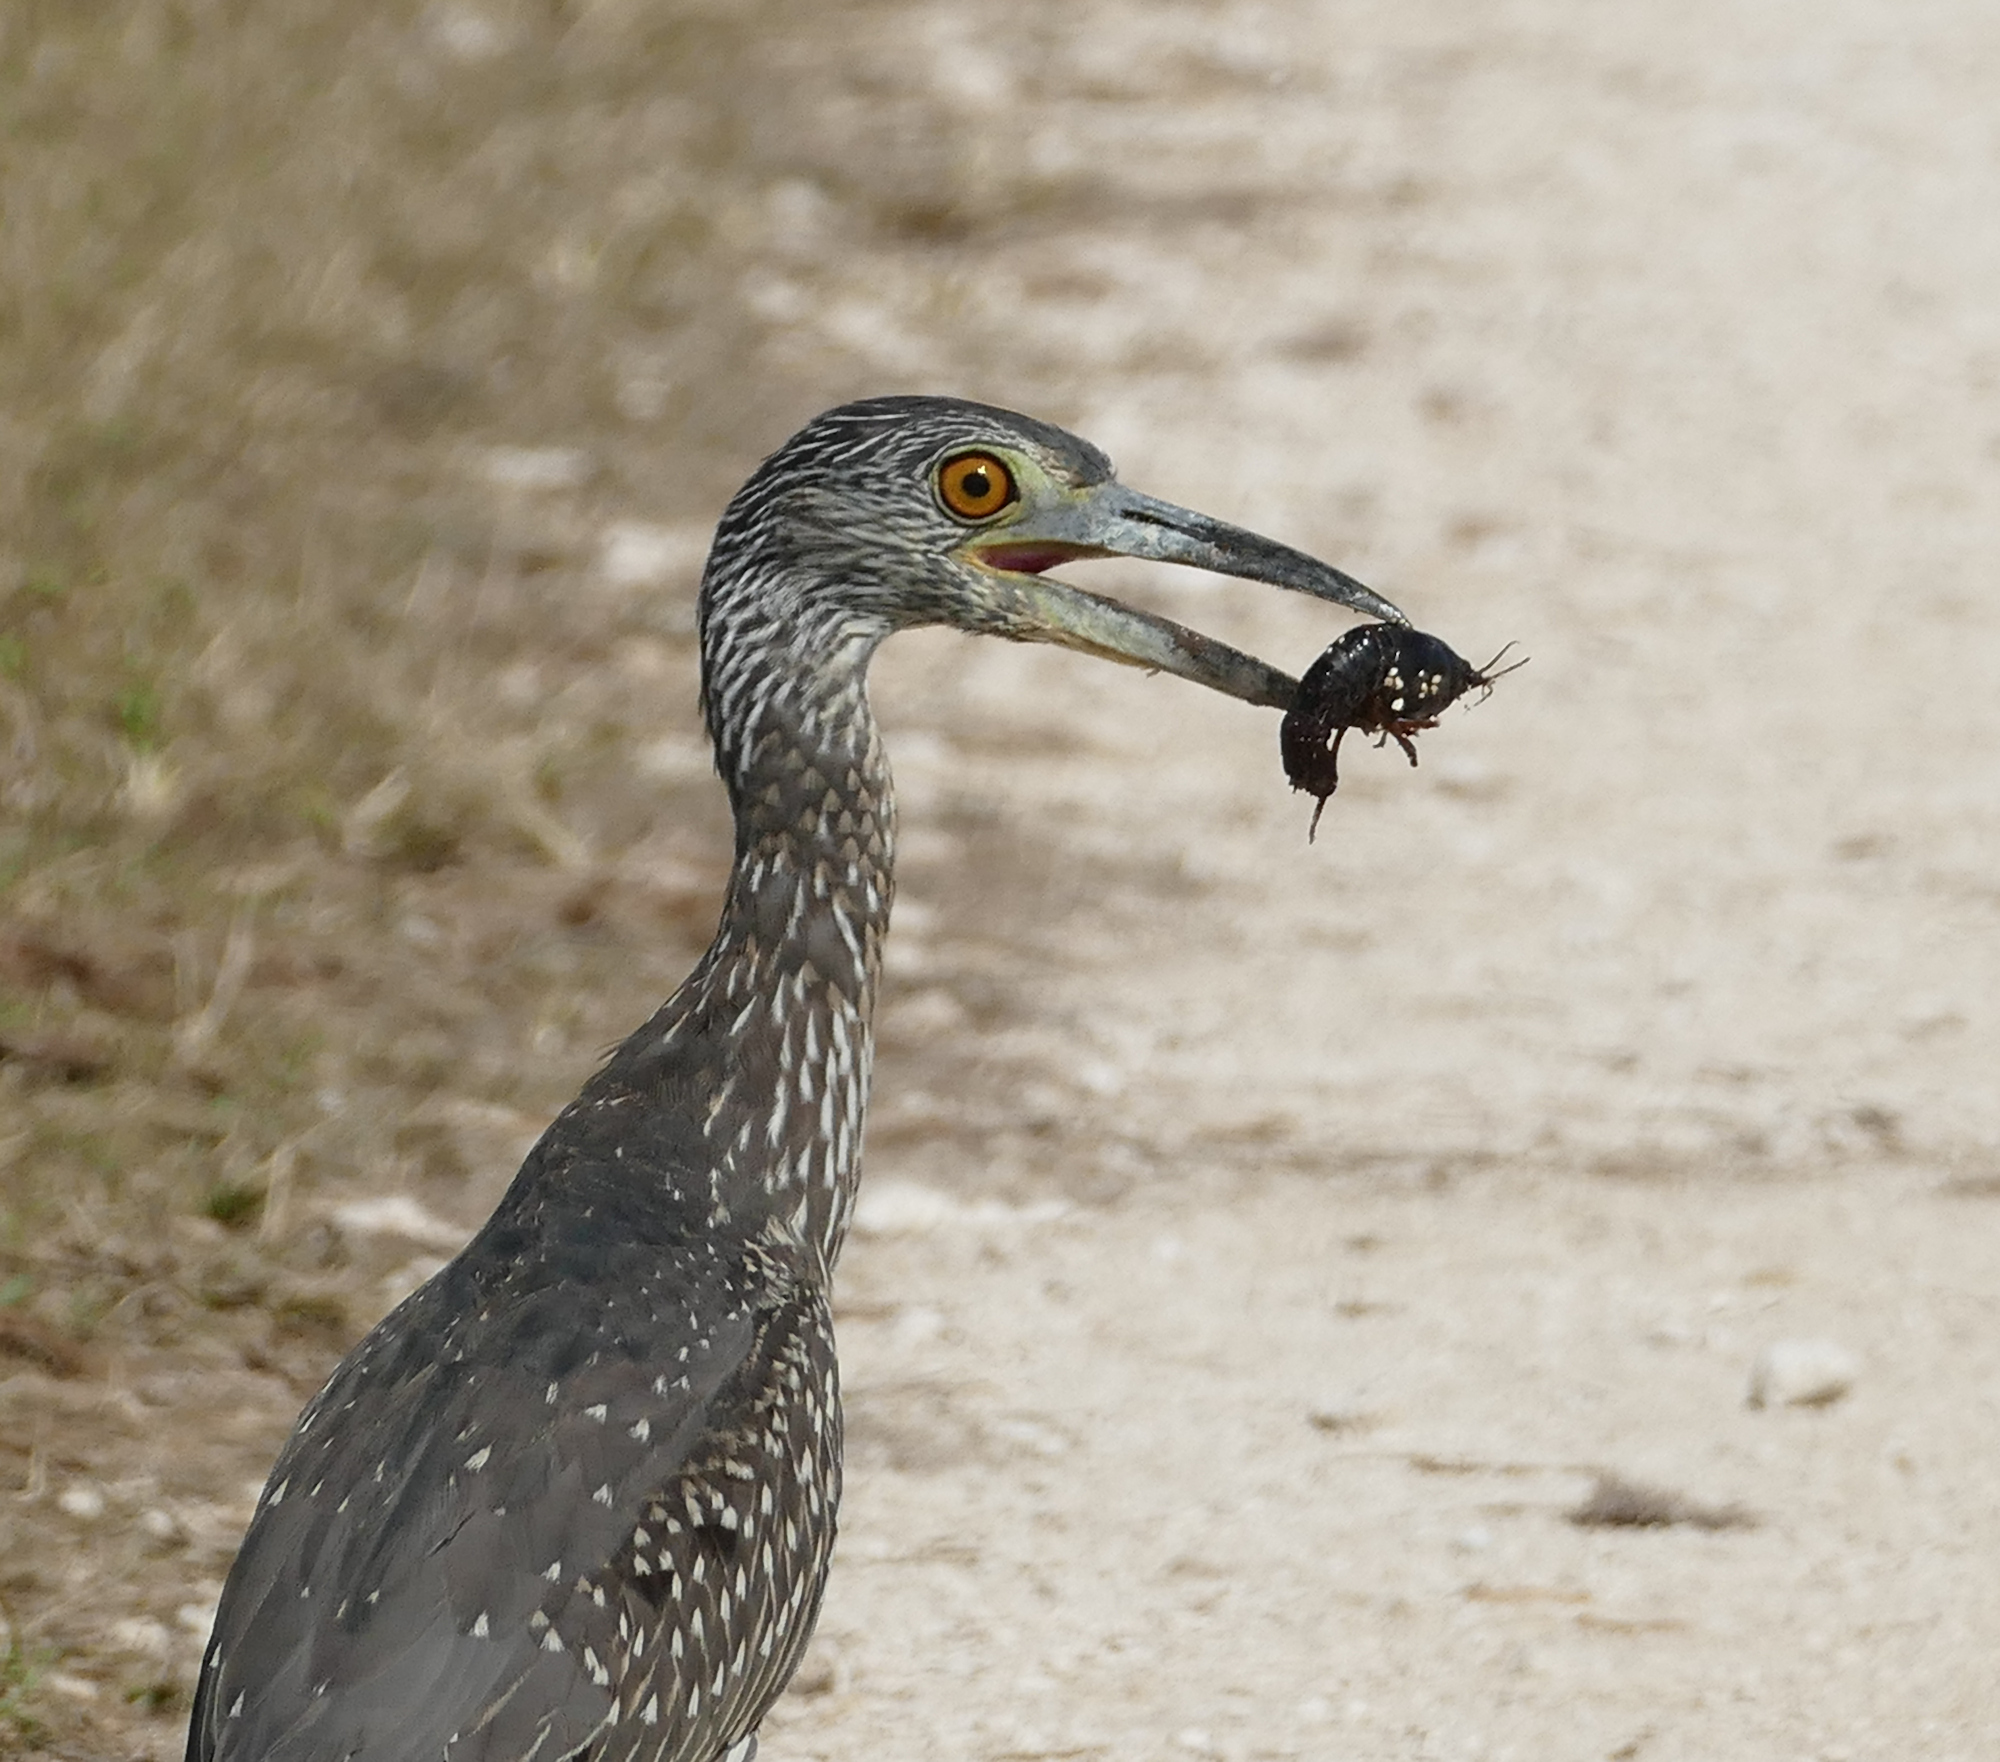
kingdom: Animalia
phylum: Chordata
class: Aves
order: Pelecaniformes
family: Ardeidae
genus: Nyctanassa
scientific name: Nyctanassa violacea
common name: Yellow-crowned night heron
